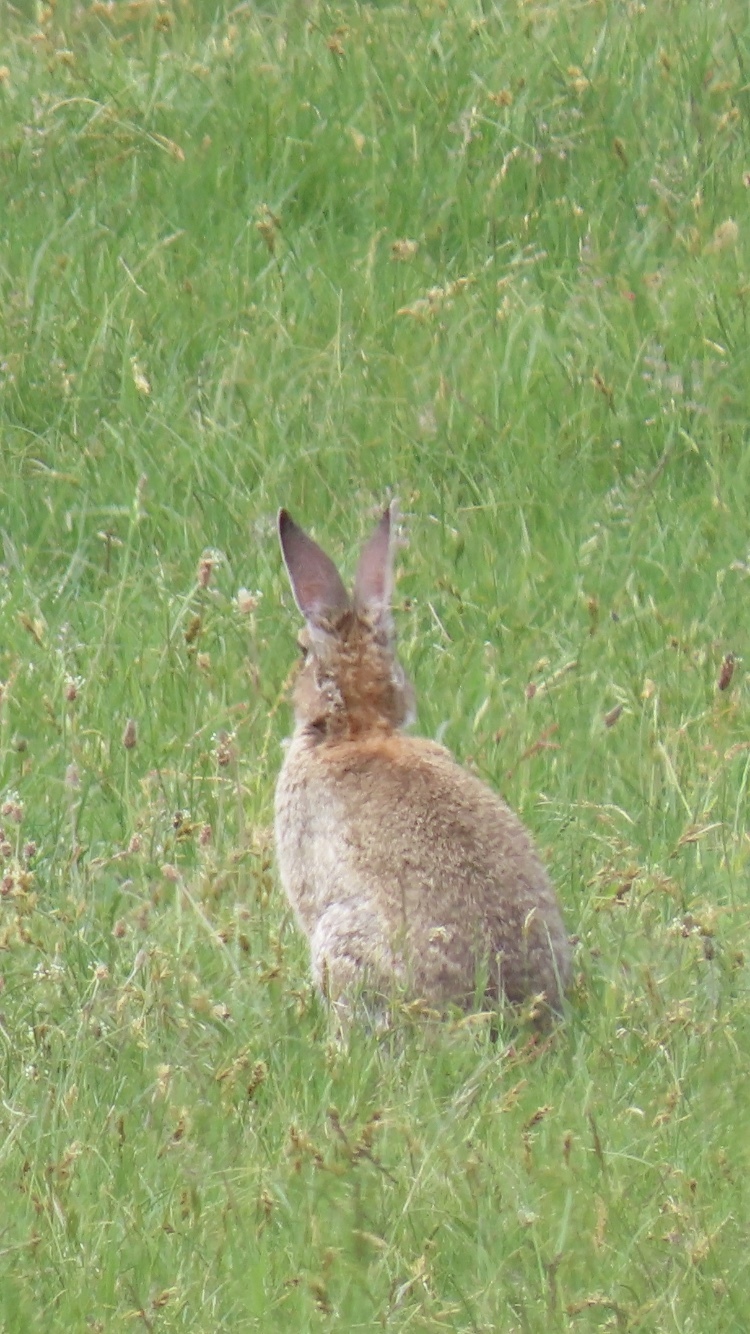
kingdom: Animalia
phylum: Chordata
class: Mammalia
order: Lagomorpha
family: Leporidae
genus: Oryctolagus
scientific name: Oryctolagus cuniculus
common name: European rabbit
